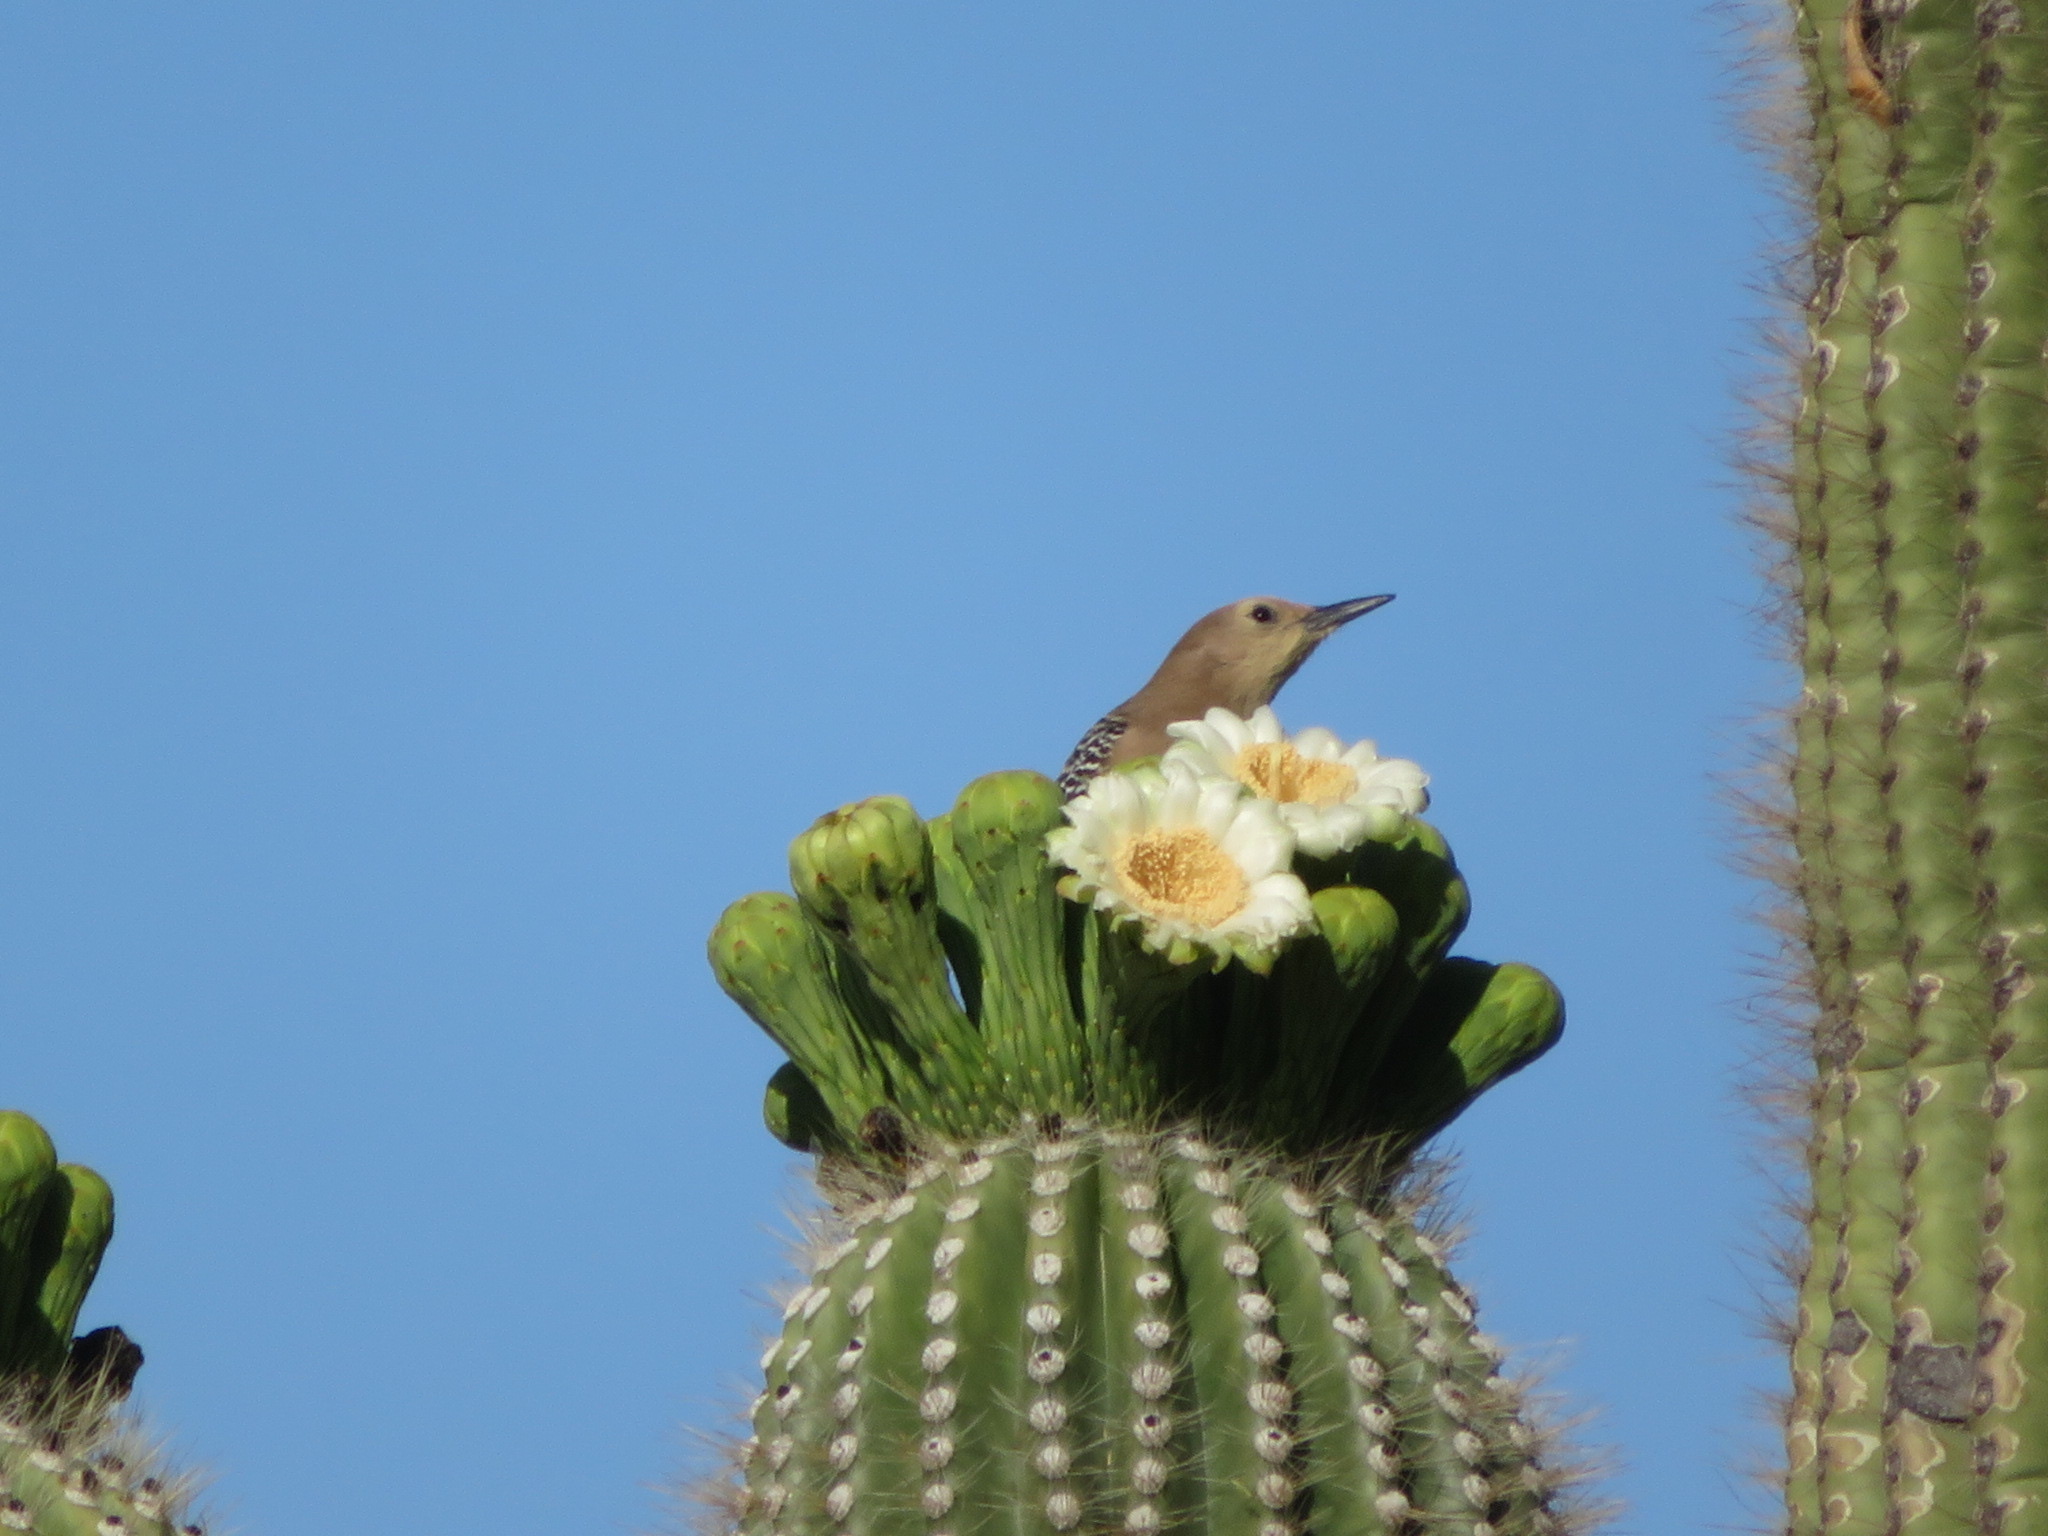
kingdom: Animalia
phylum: Chordata
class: Aves
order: Piciformes
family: Picidae
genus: Melanerpes
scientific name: Melanerpes uropygialis
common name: Gila woodpecker
